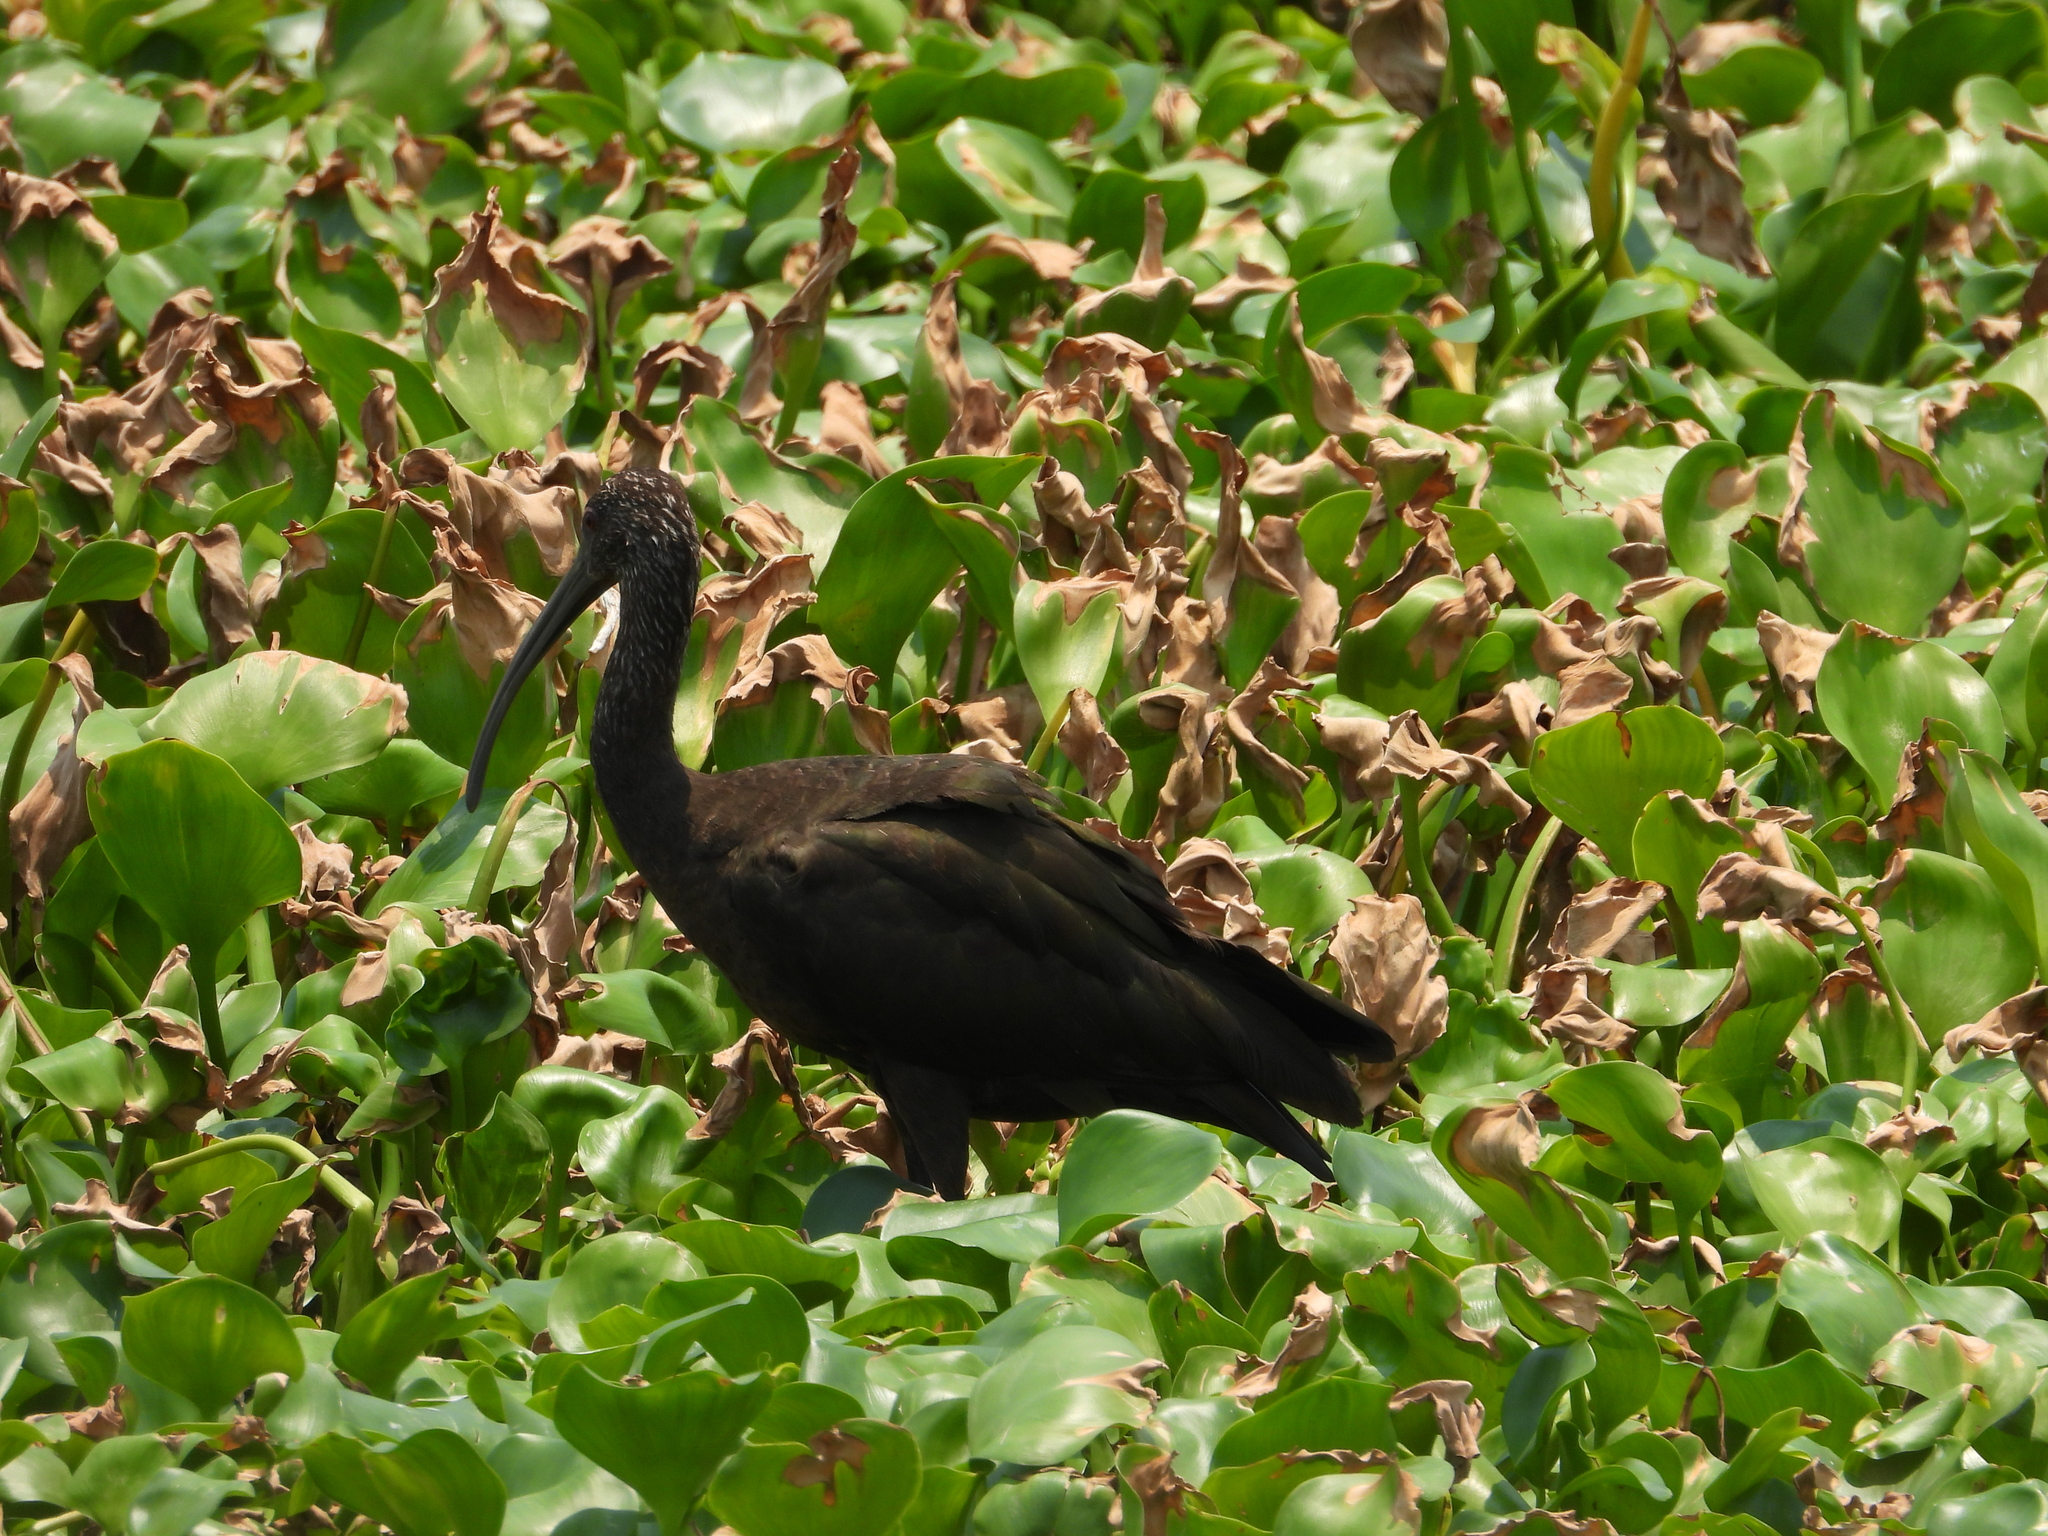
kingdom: Animalia
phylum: Chordata
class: Aves
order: Pelecaniformes
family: Threskiornithidae
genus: Plegadis
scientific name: Plegadis chihi
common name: White-faced ibis
